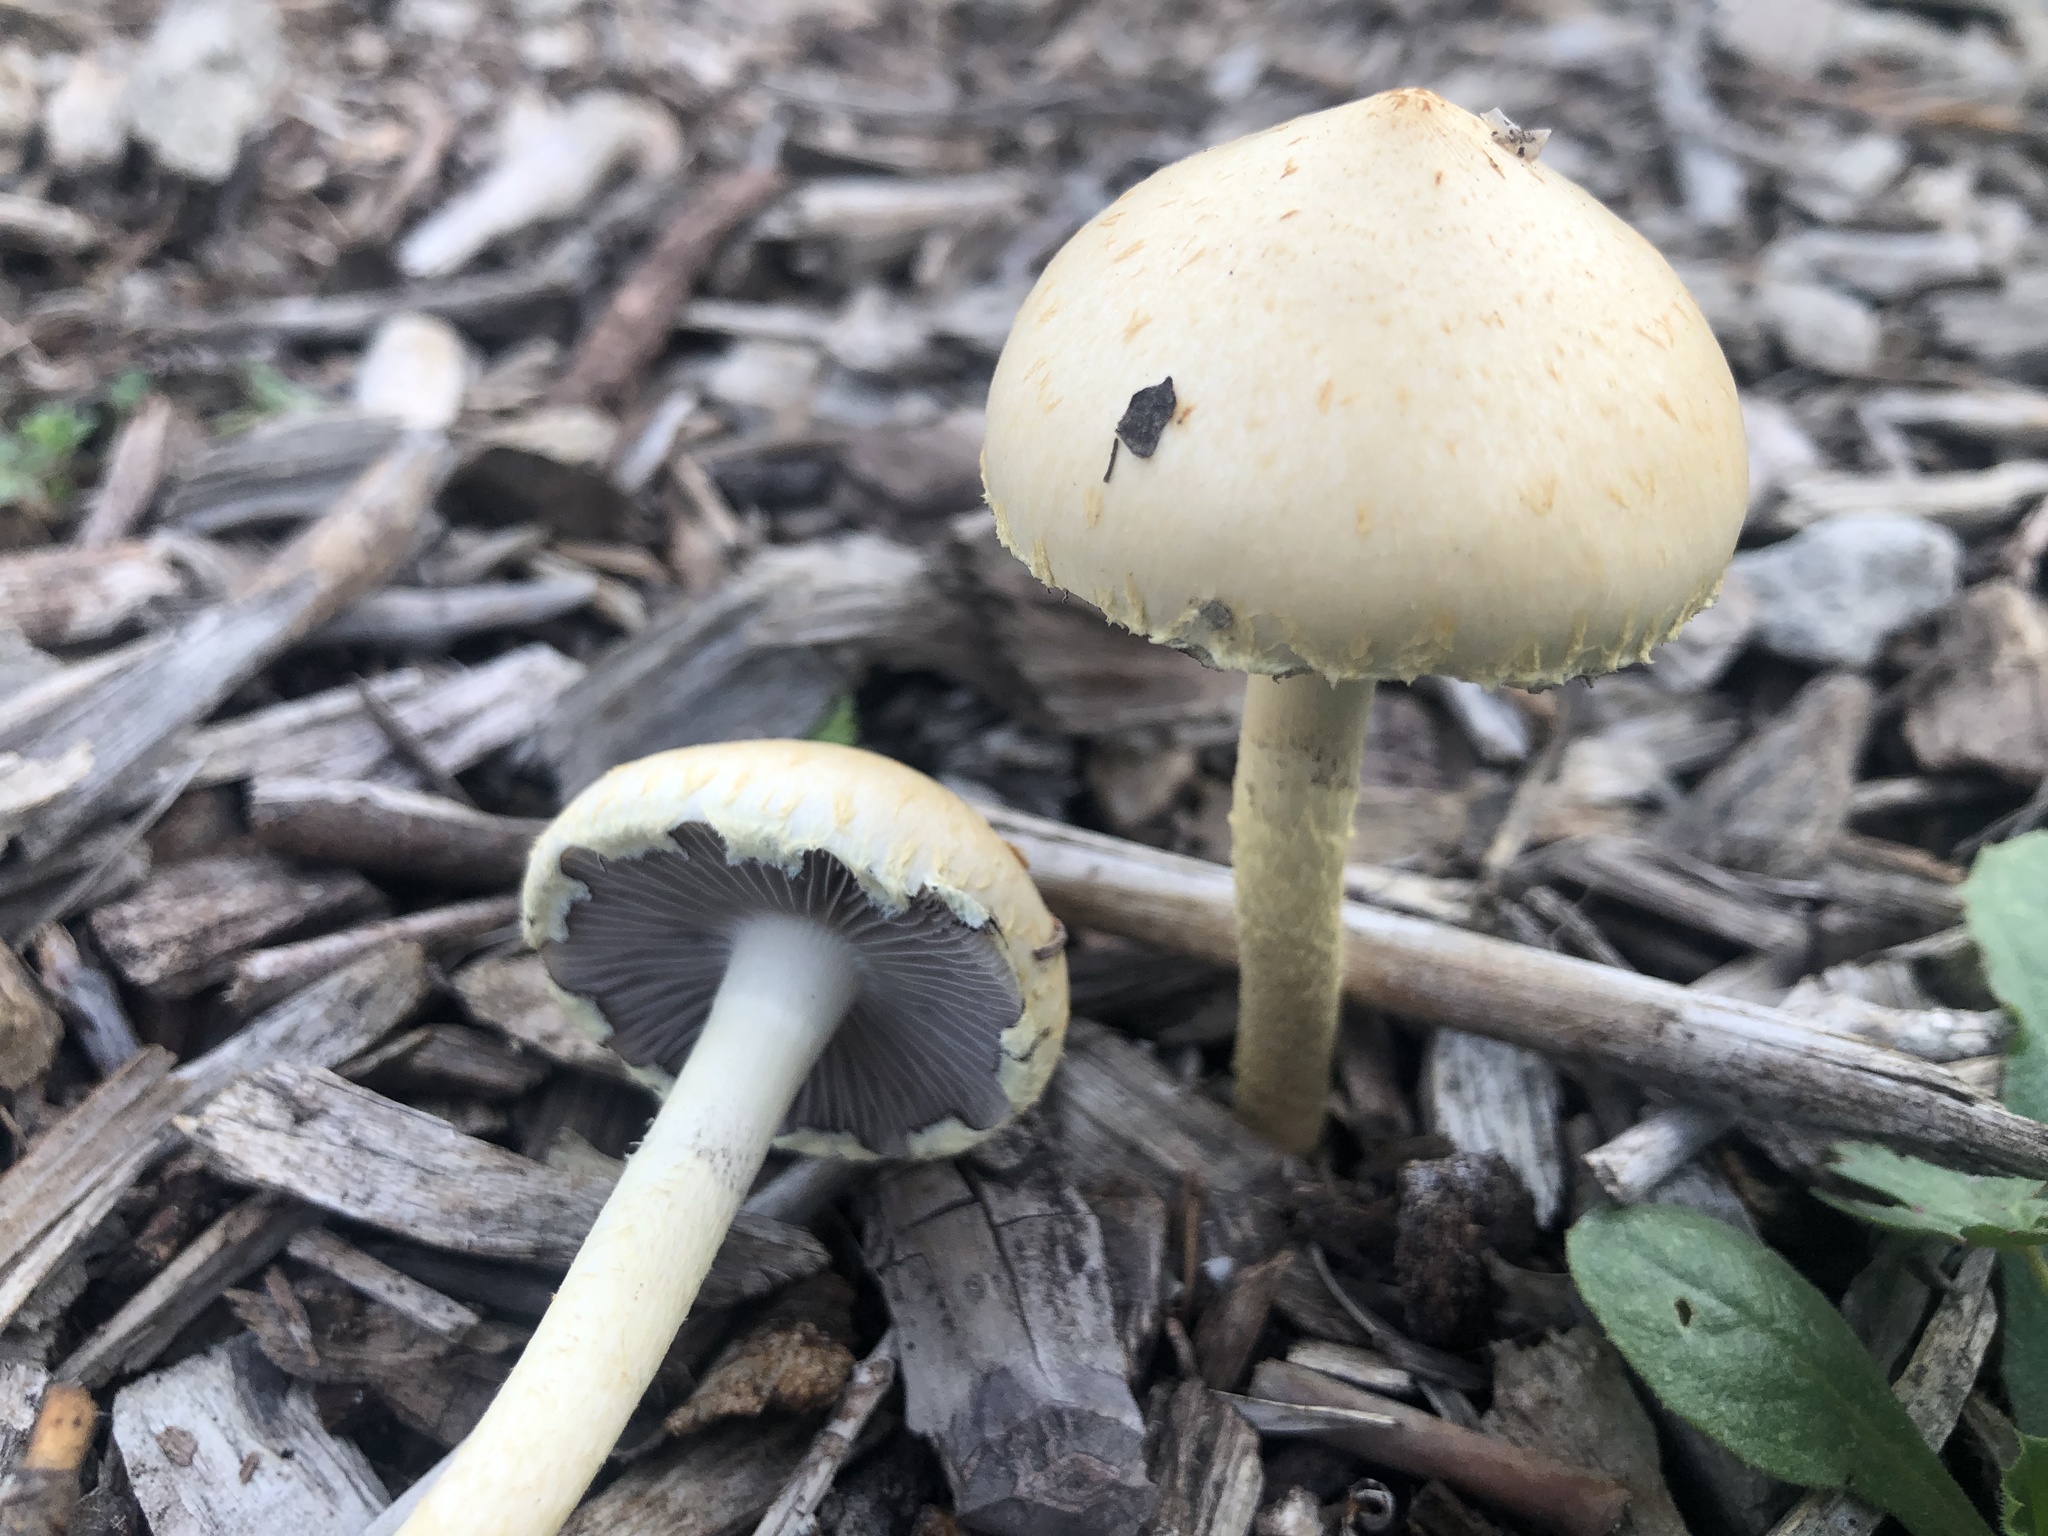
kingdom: Fungi
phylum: Basidiomycota
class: Agaricomycetes
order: Agaricales
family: Strophariaceae
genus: Leratiomyces
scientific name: Leratiomyces percevalii
